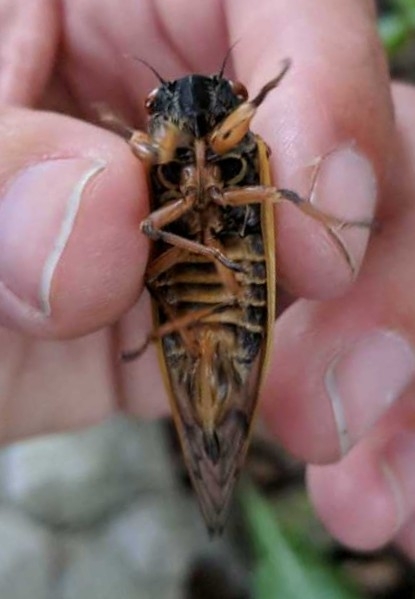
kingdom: Animalia
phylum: Arthropoda
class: Insecta
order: Hemiptera
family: Cicadidae
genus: Magicicada
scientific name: Magicicada septendecim
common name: Periodical cicada
